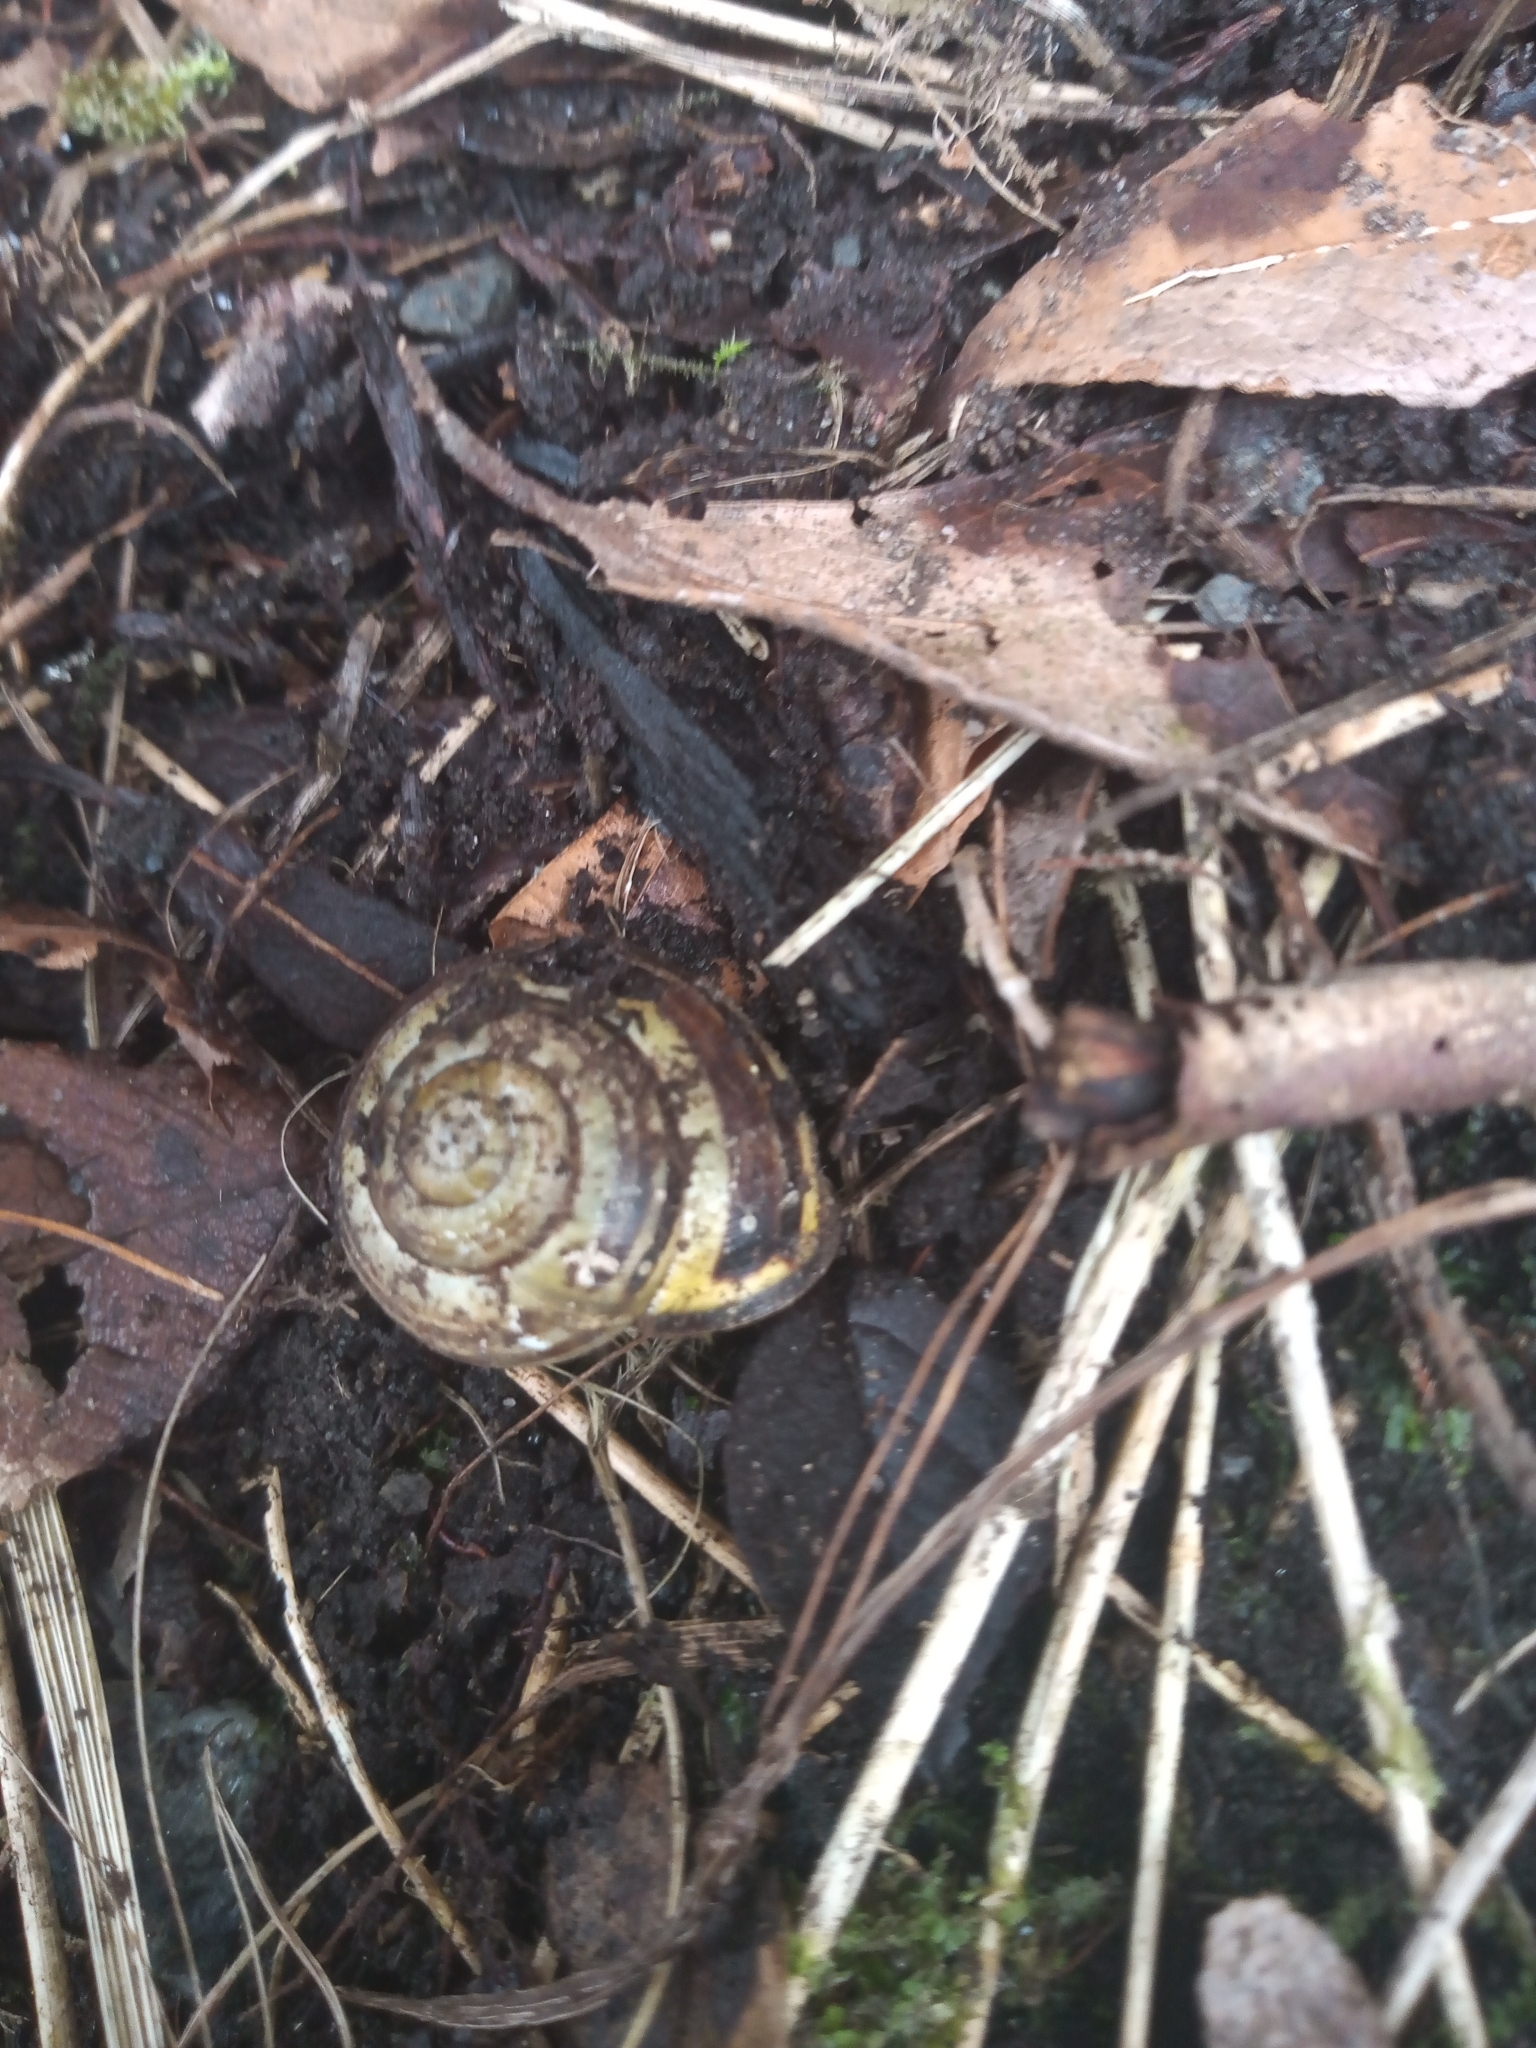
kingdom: Animalia
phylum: Mollusca
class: Gastropoda
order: Stylommatophora
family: Helicidae
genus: Cepaea
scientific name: Cepaea nemoralis
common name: Grovesnail
